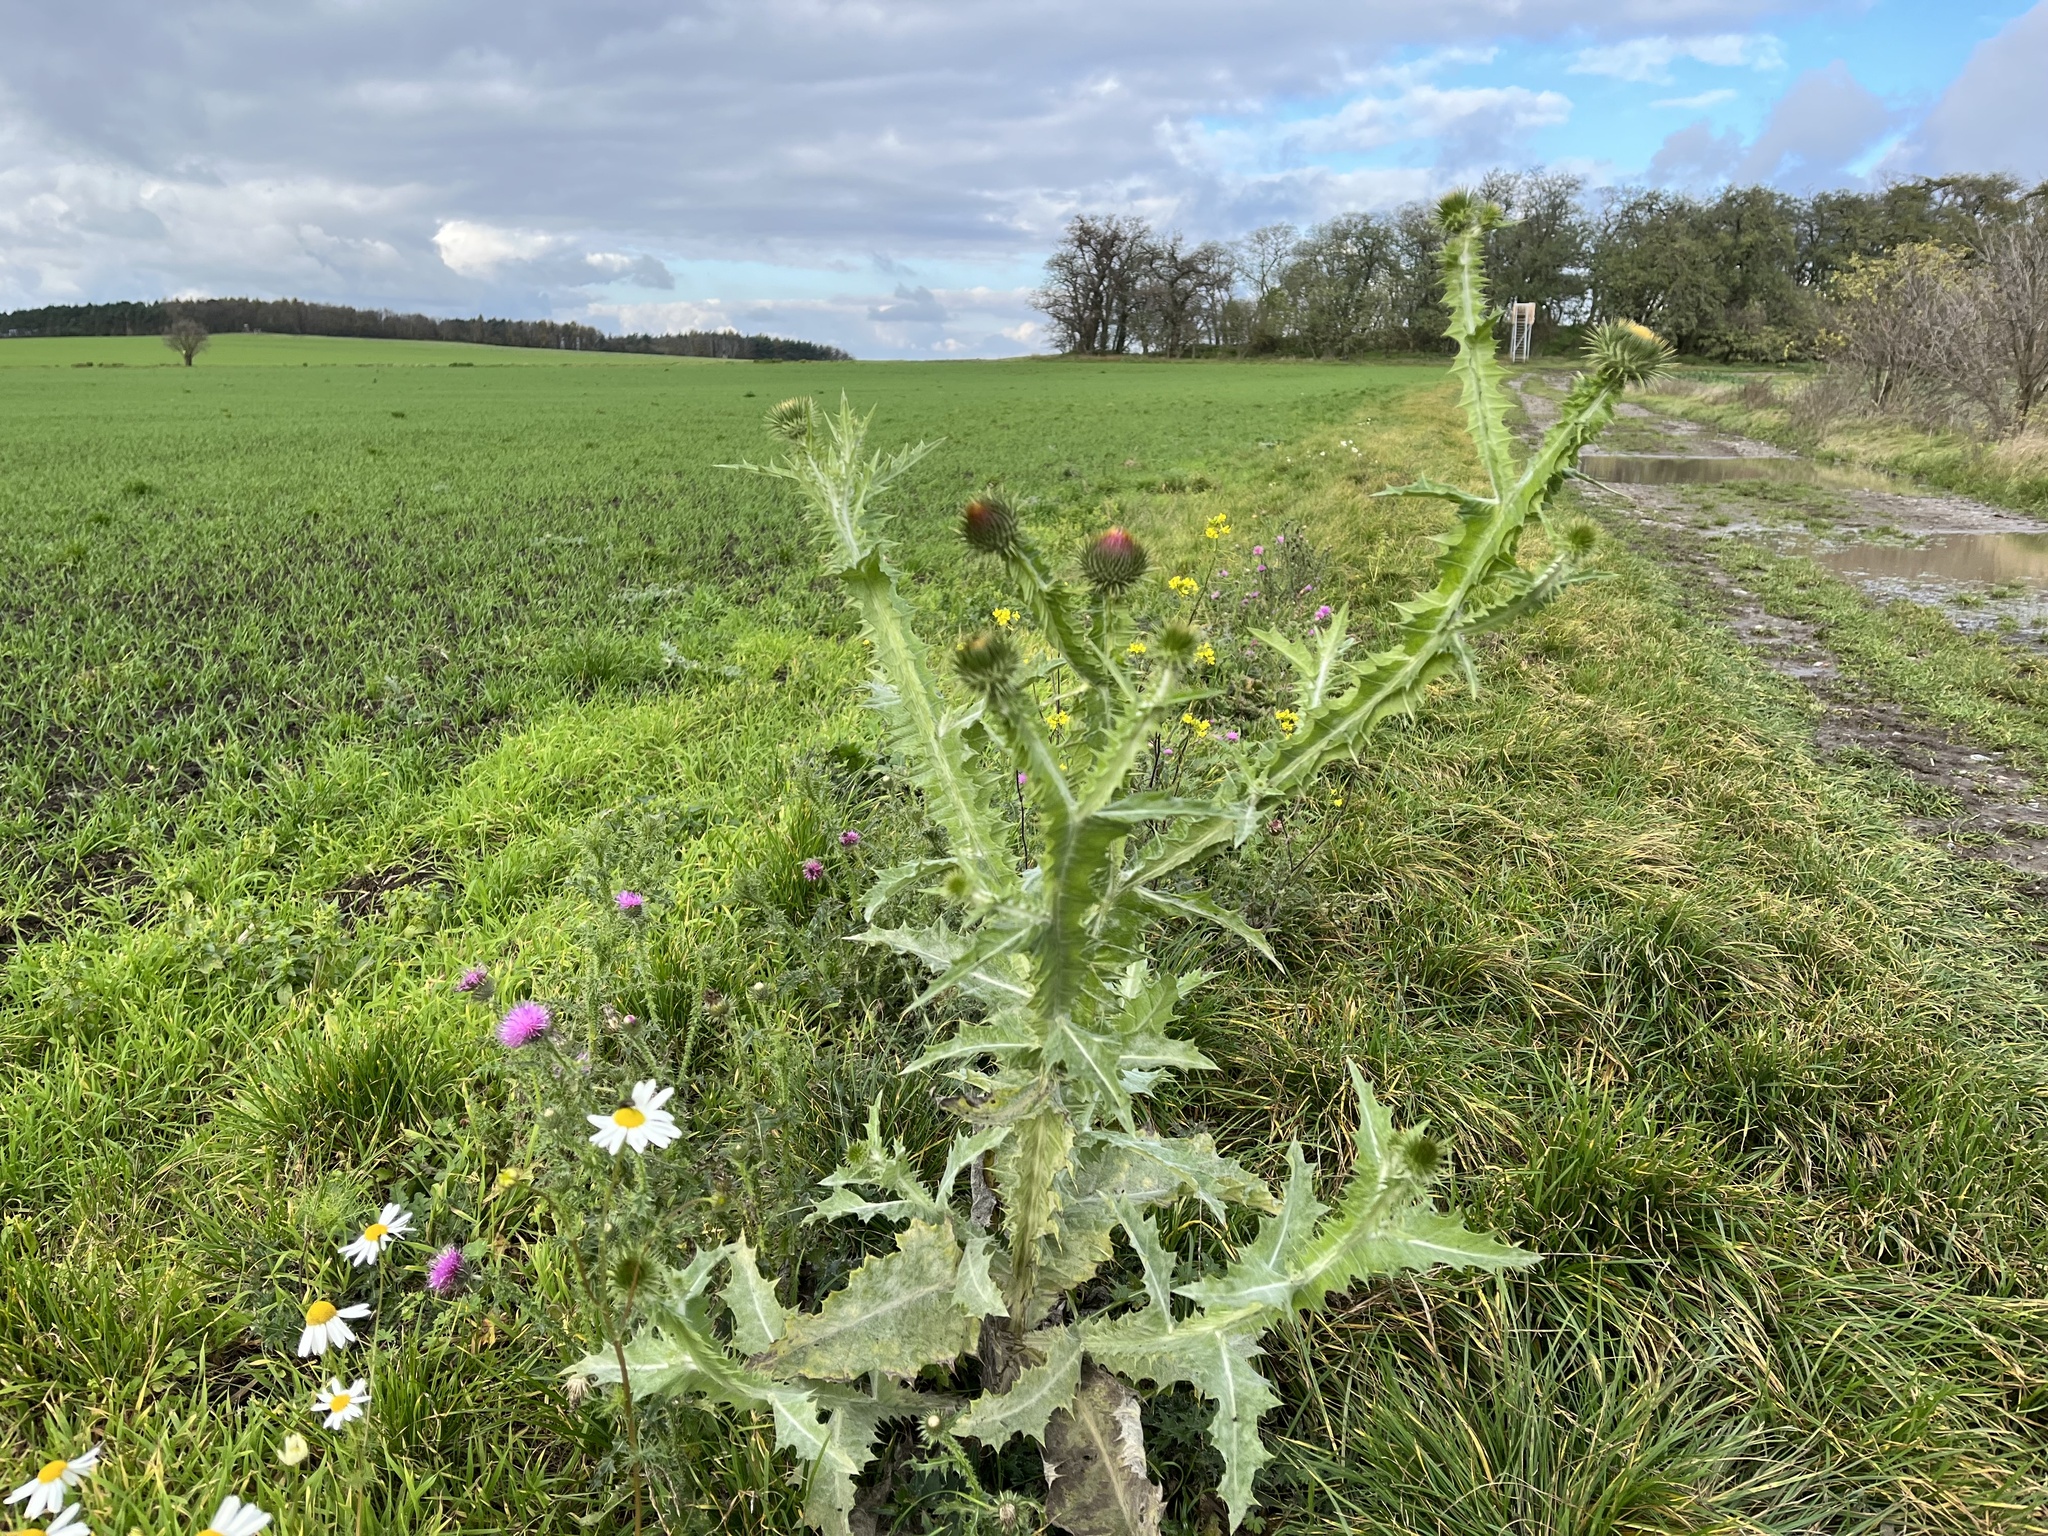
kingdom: Plantae
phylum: Tracheophyta
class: Magnoliopsida
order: Asterales
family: Asteraceae
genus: Onopordum
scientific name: Onopordum acanthium
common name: Scotch thistle
